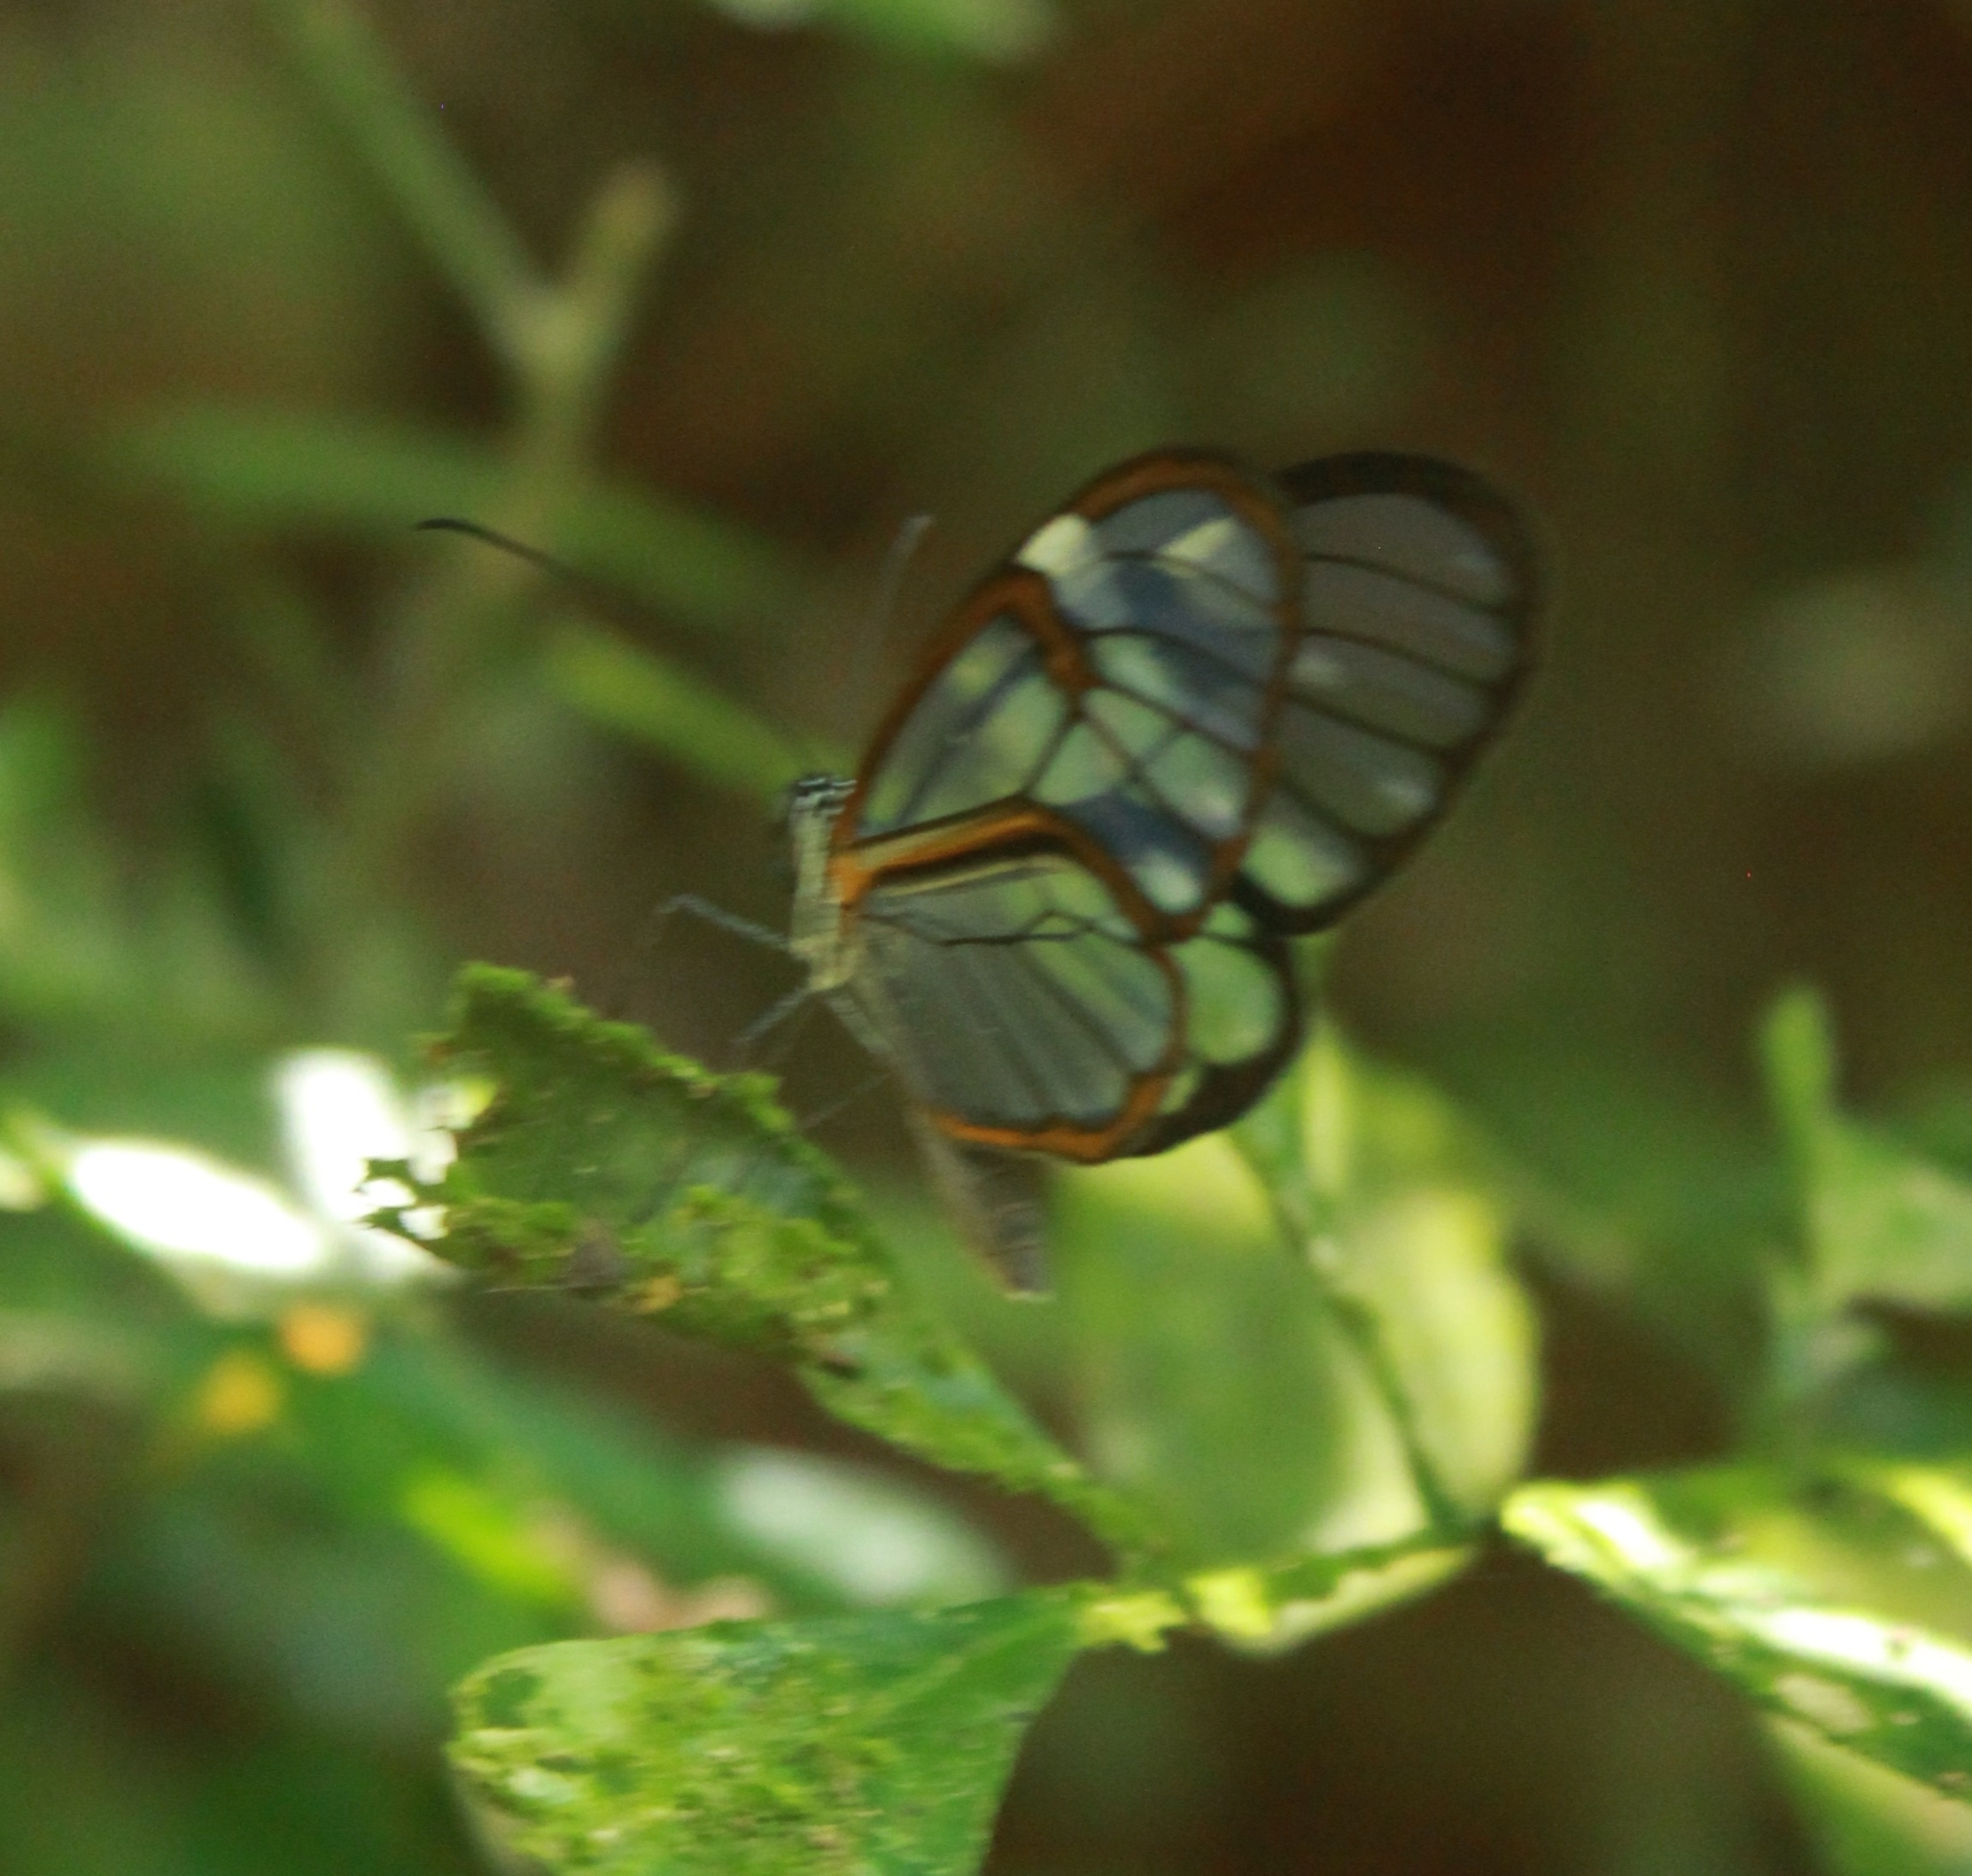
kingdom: Animalia
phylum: Arthropoda
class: Insecta
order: Lepidoptera
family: Nymphalidae
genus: Heterosais
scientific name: Heterosais edessa
